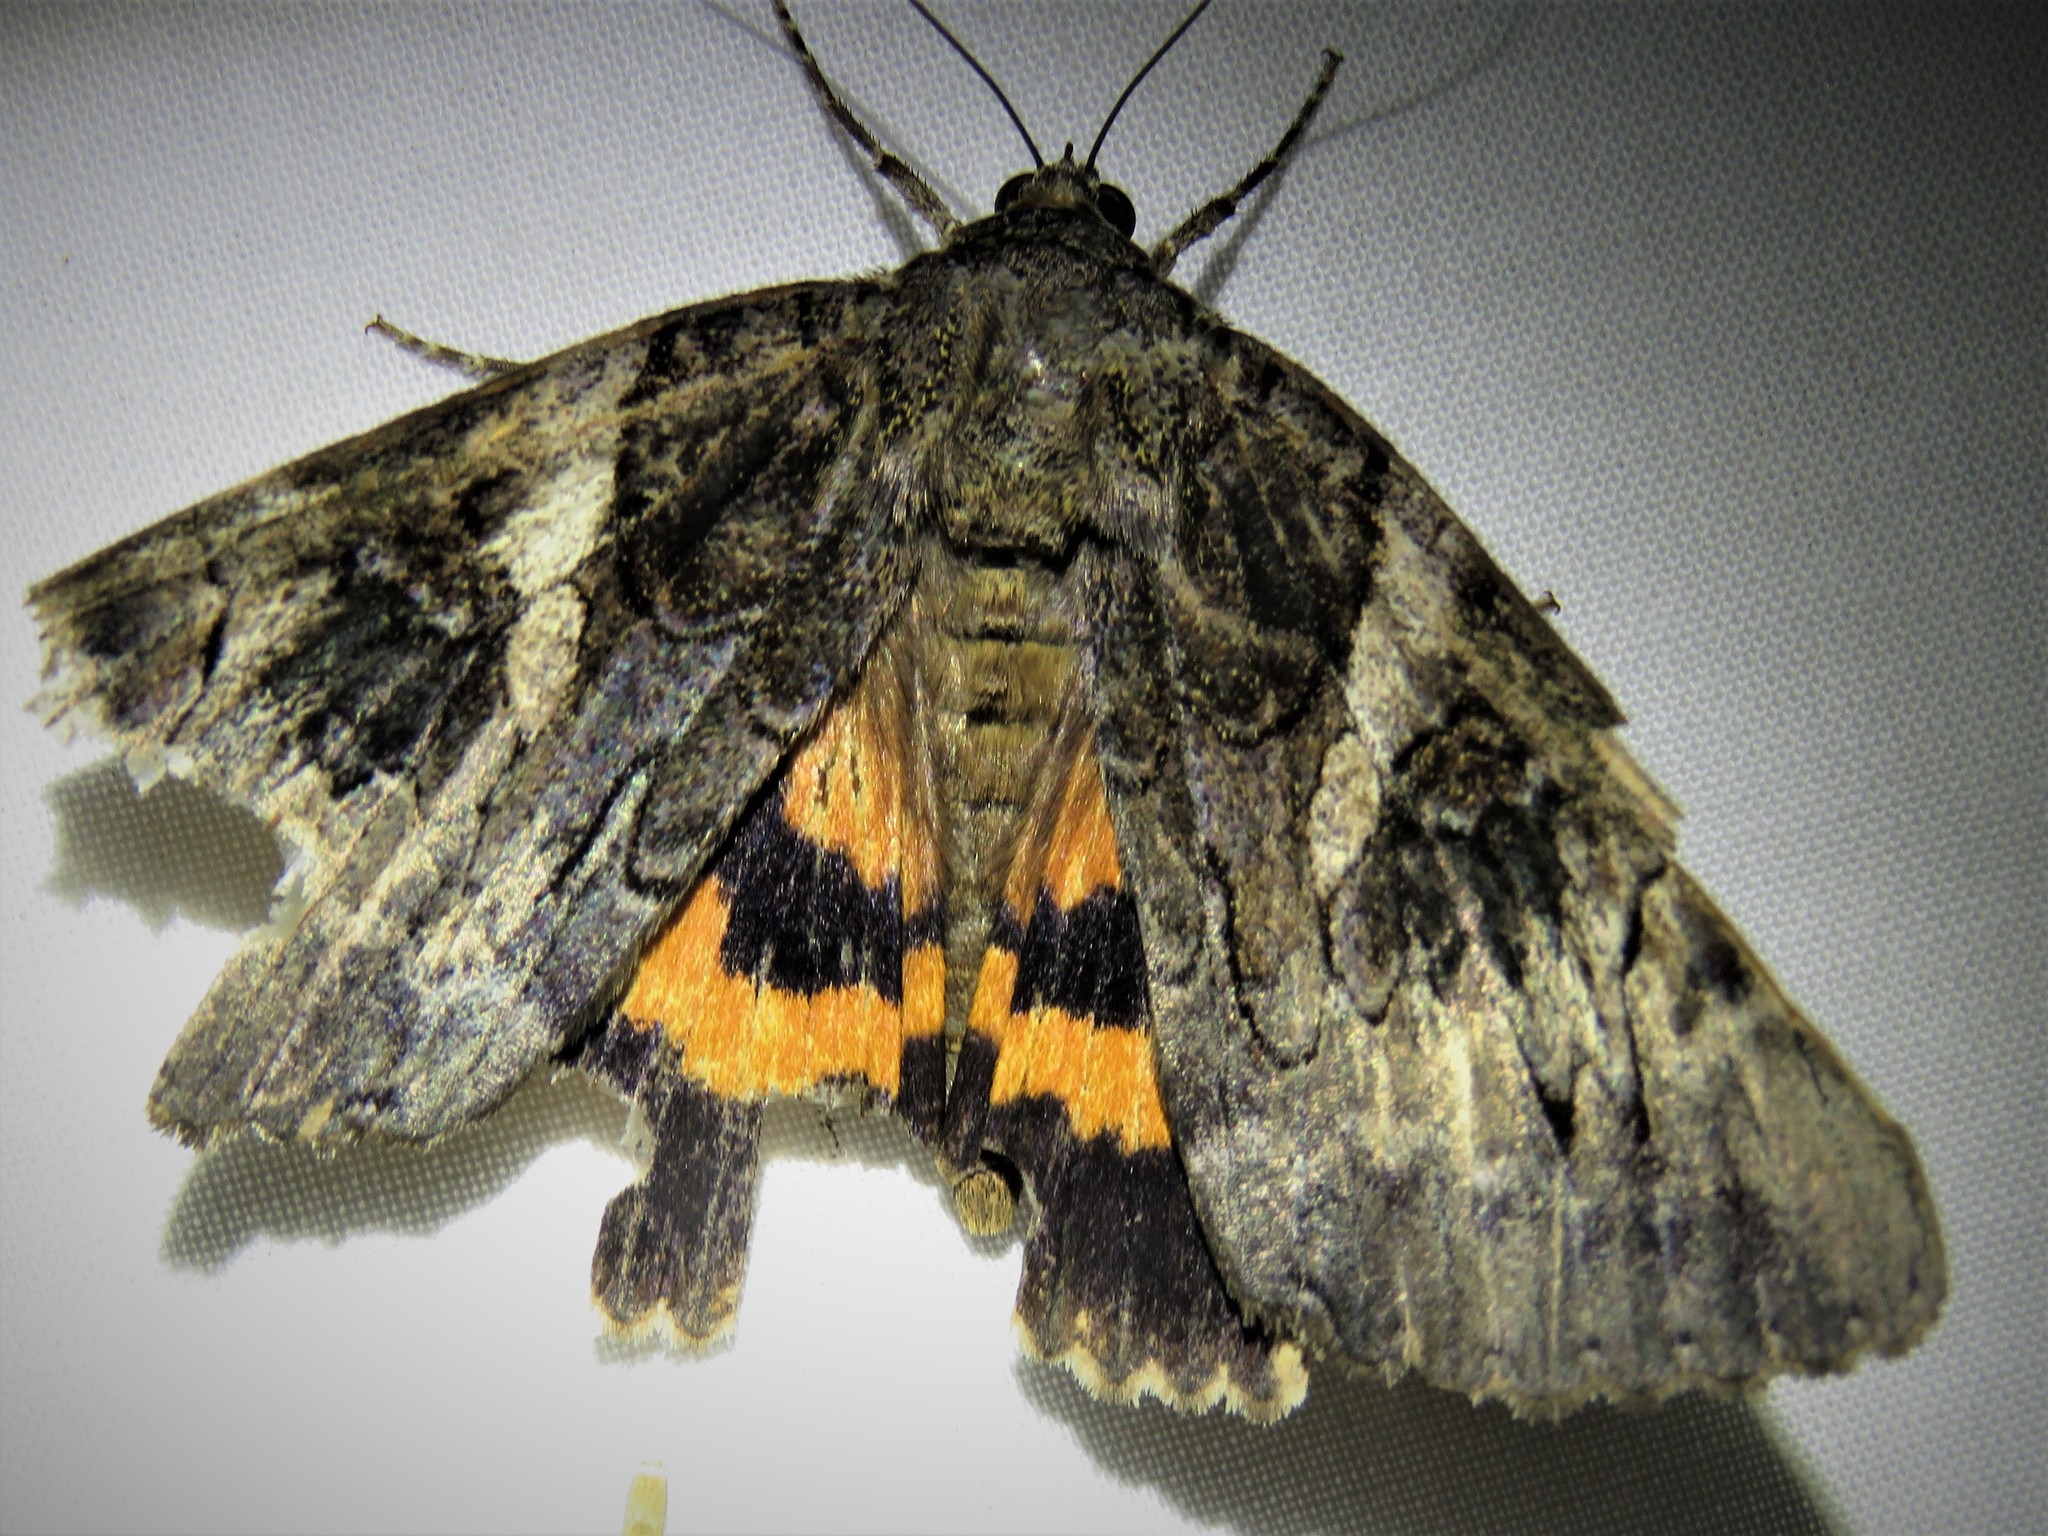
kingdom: Animalia
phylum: Arthropoda
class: Insecta
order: Lepidoptera
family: Erebidae
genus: Catocala
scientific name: Catocala piatrix
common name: The penitent underwing
